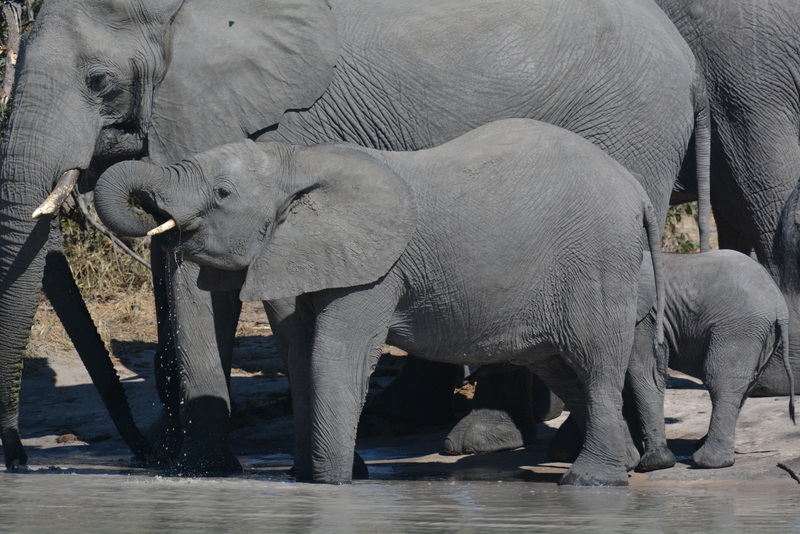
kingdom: Animalia
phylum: Chordata
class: Mammalia
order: Proboscidea
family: Elephantidae
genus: Loxodonta
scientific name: Loxodonta africana
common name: African elephant
